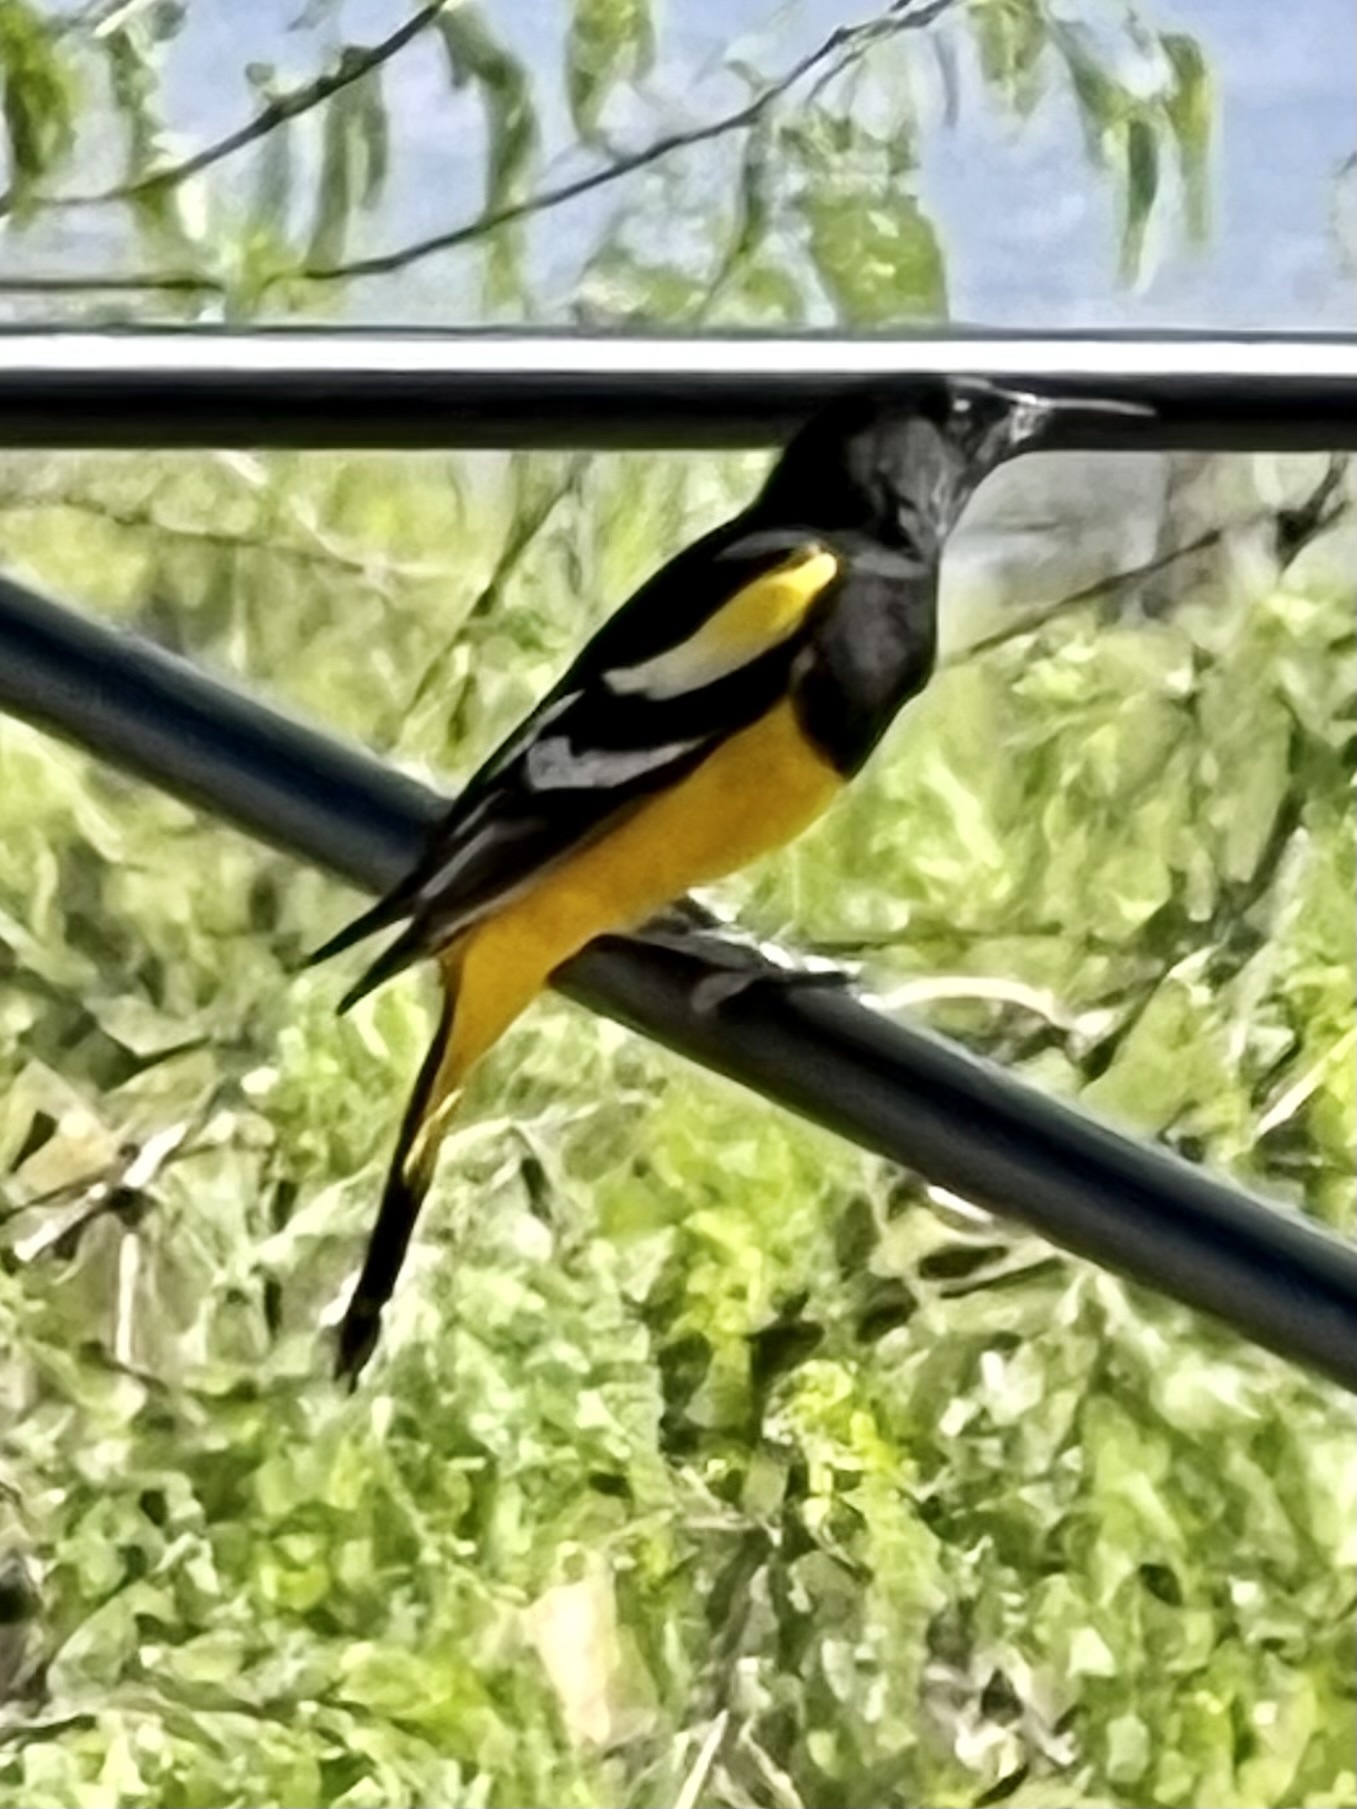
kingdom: Animalia
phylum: Chordata
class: Aves
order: Passeriformes
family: Icteridae
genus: Icterus
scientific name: Icterus parisorum
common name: Scott's oriole
